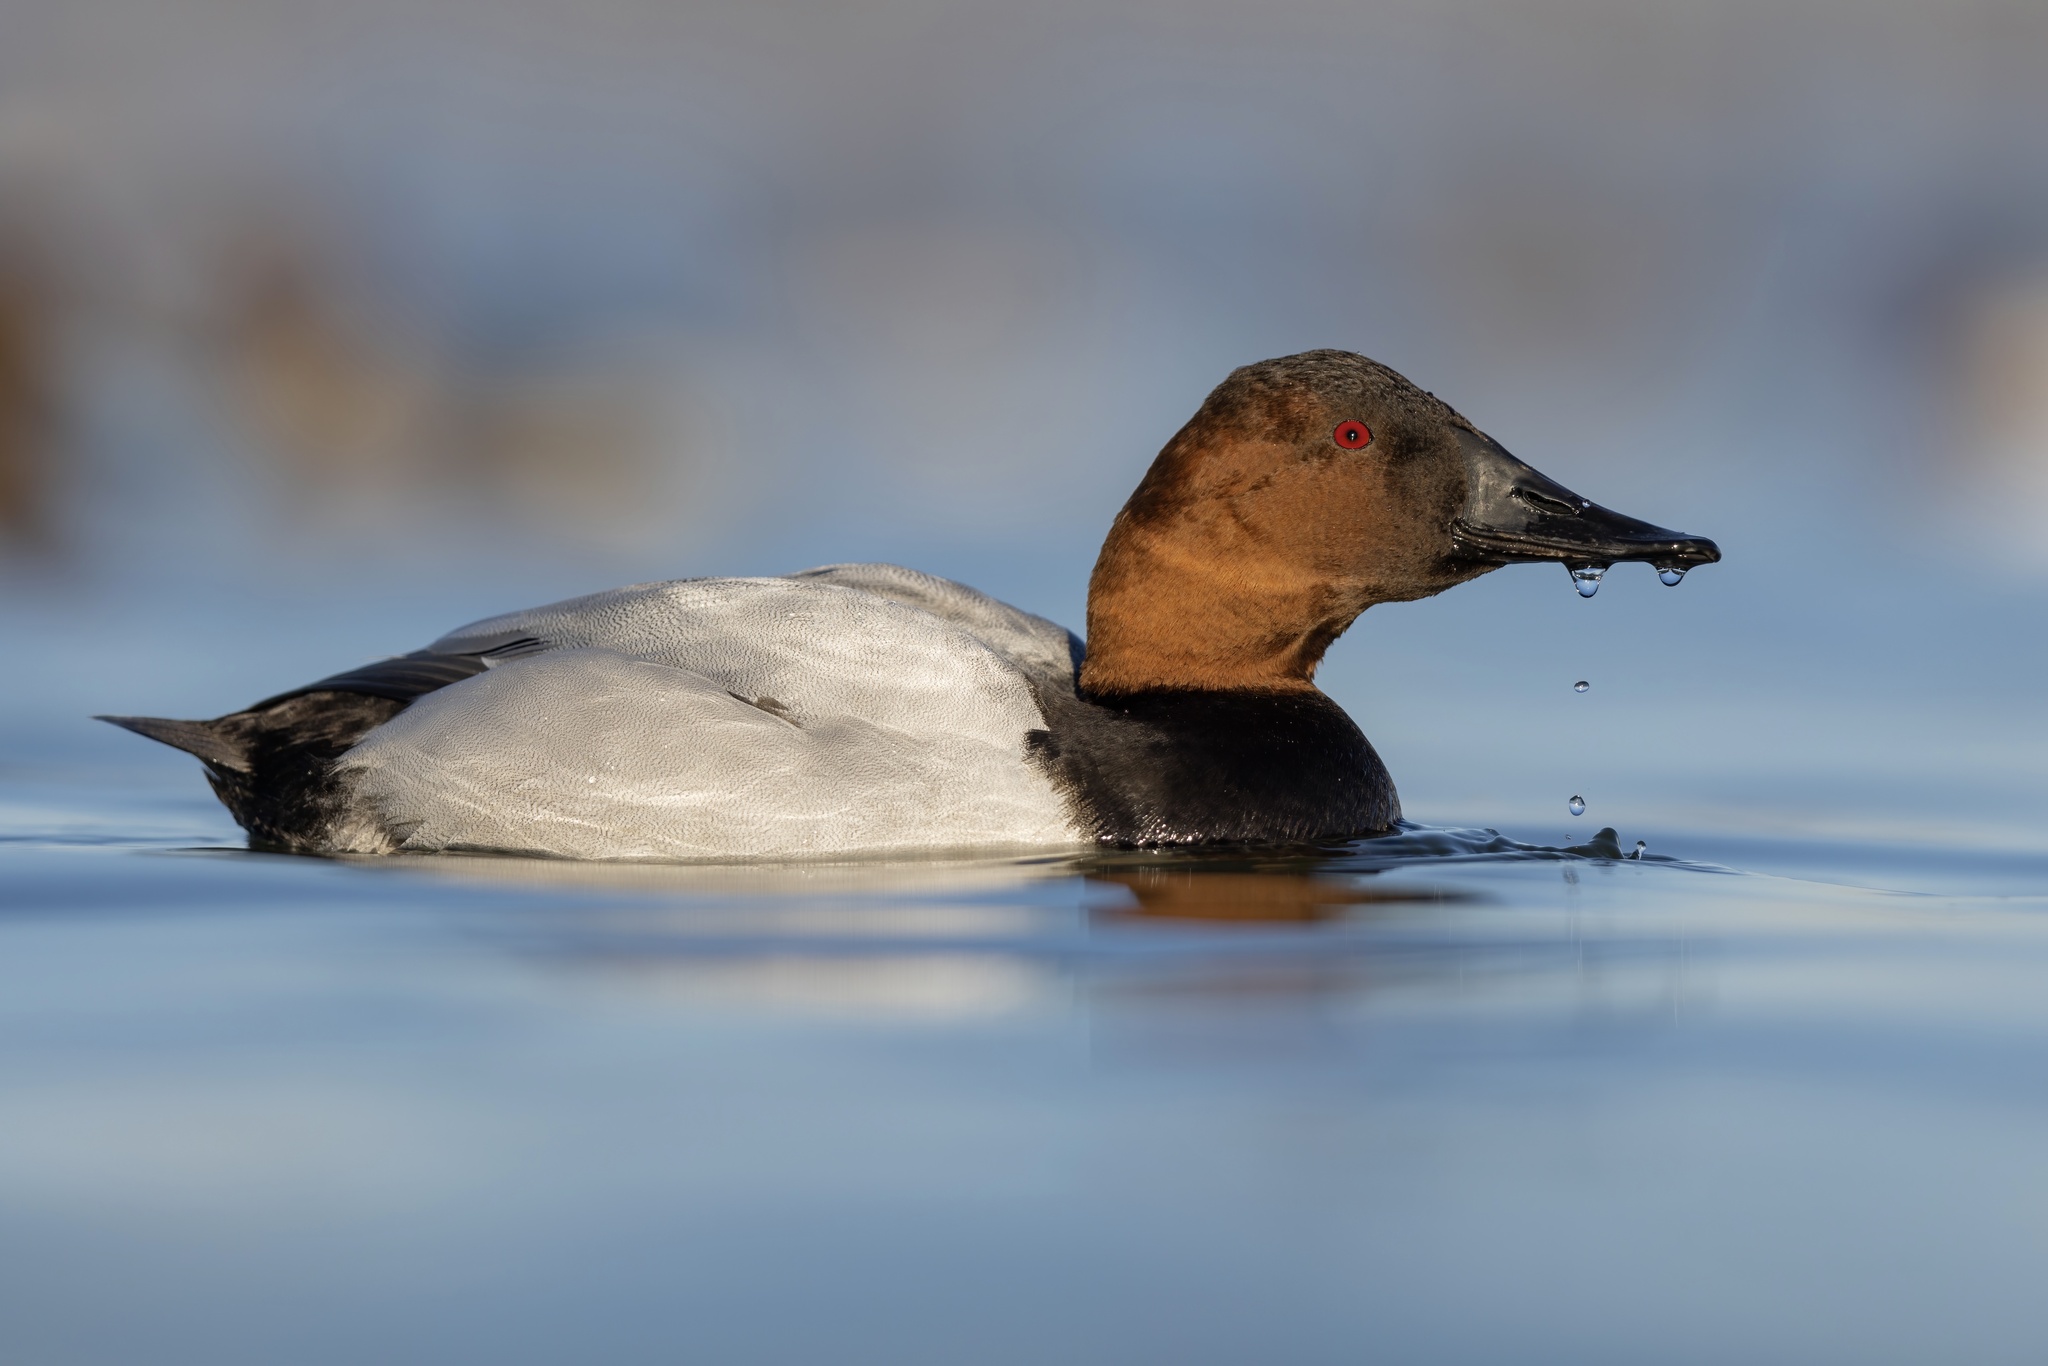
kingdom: Animalia
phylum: Chordata
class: Aves
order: Anseriformes
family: Anatidae
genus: Aythya
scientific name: Aythya valisineria
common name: Canvasback
